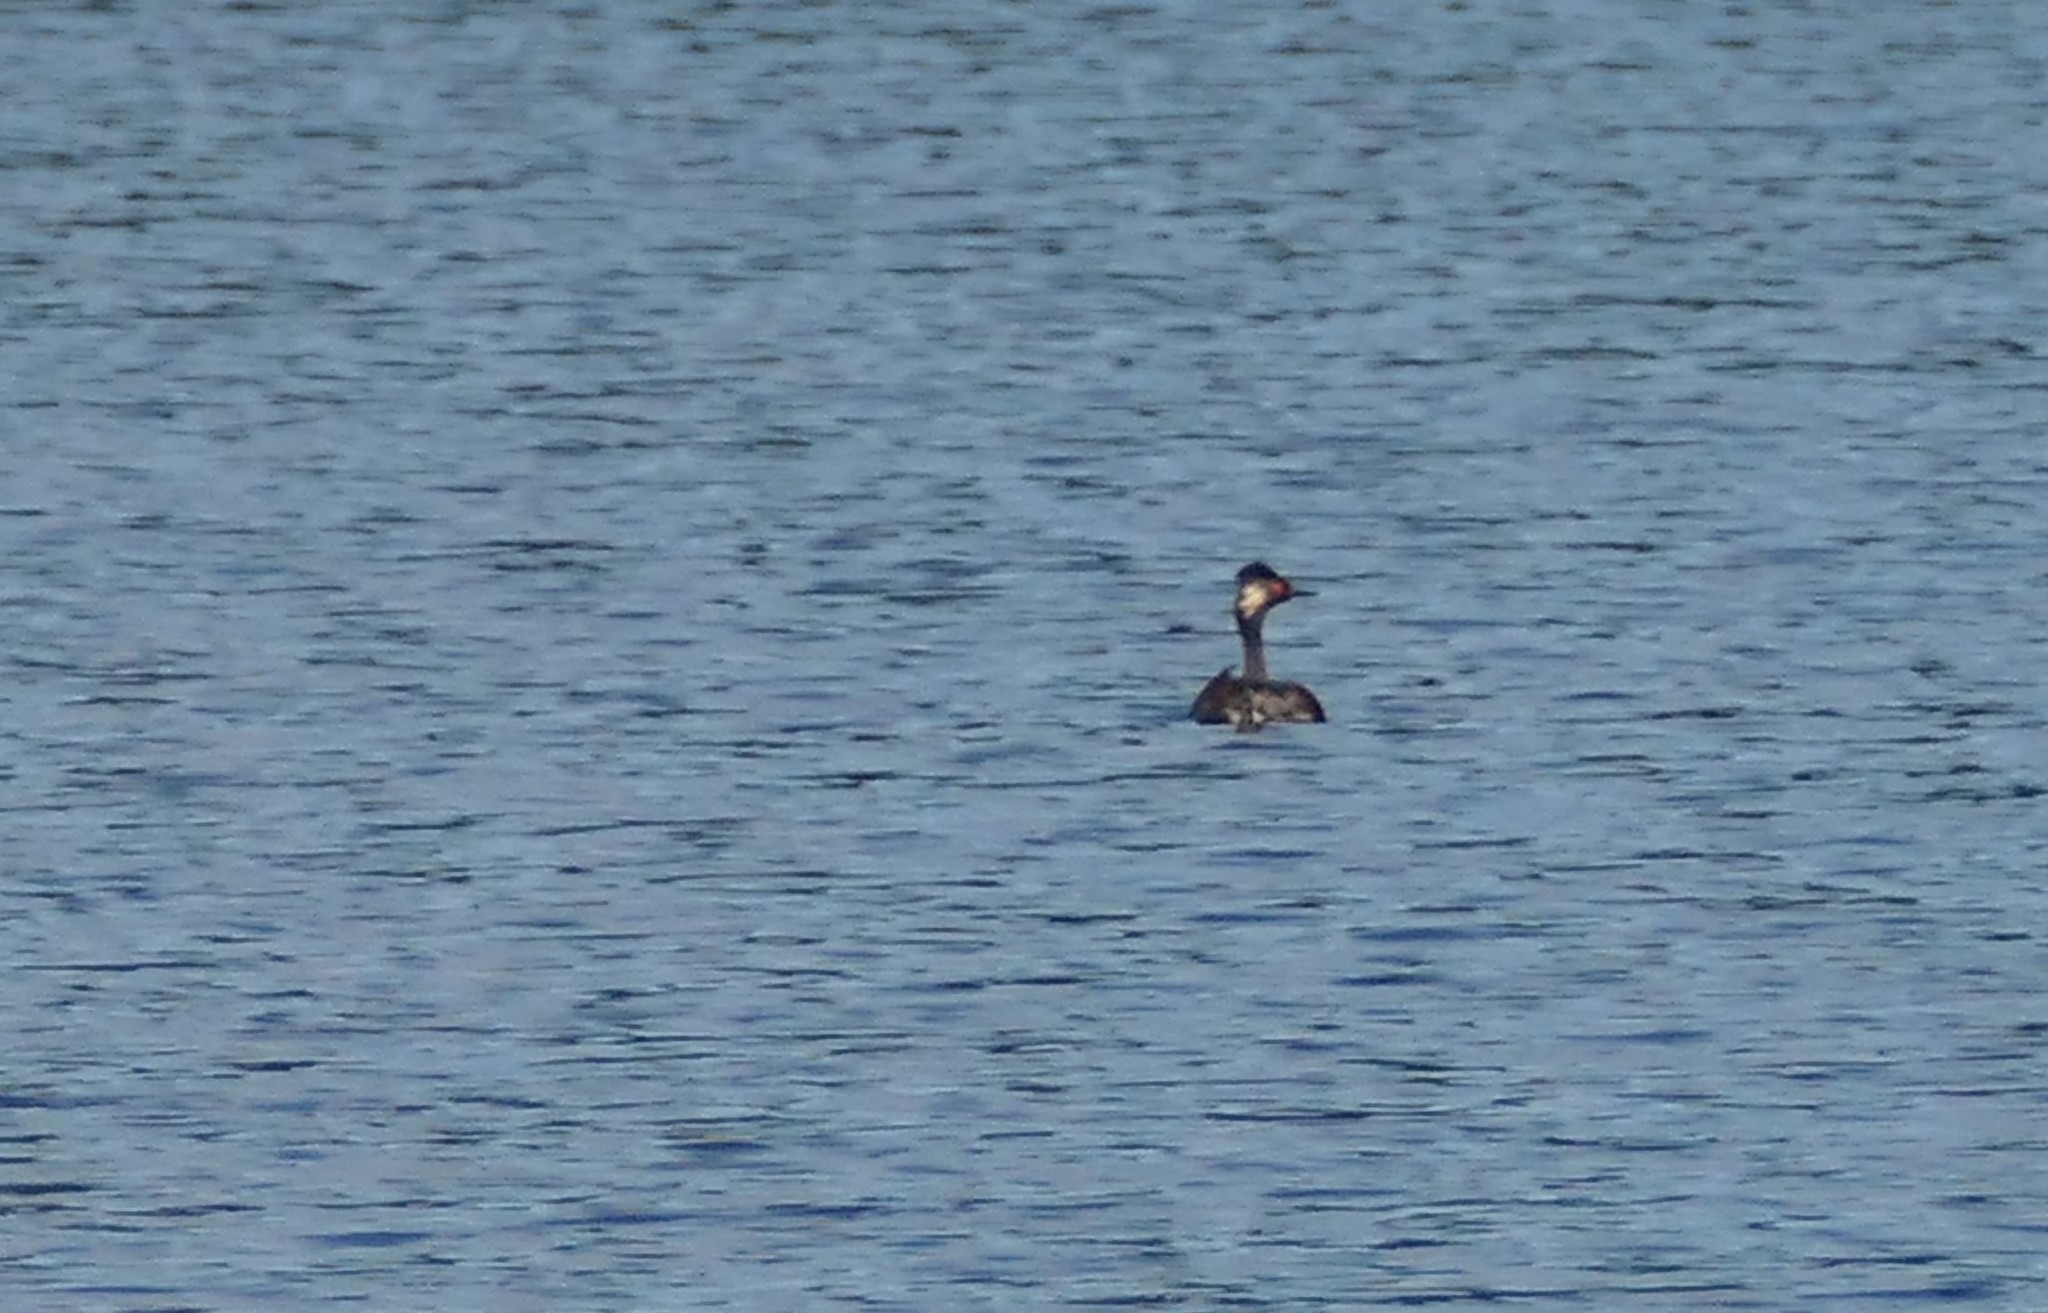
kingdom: Animalia
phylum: Chordata
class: Aves
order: Podicipediformes
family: Podicipedidae
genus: Podiceps
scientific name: Podiceps nigricollis
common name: Black-necked grebe
